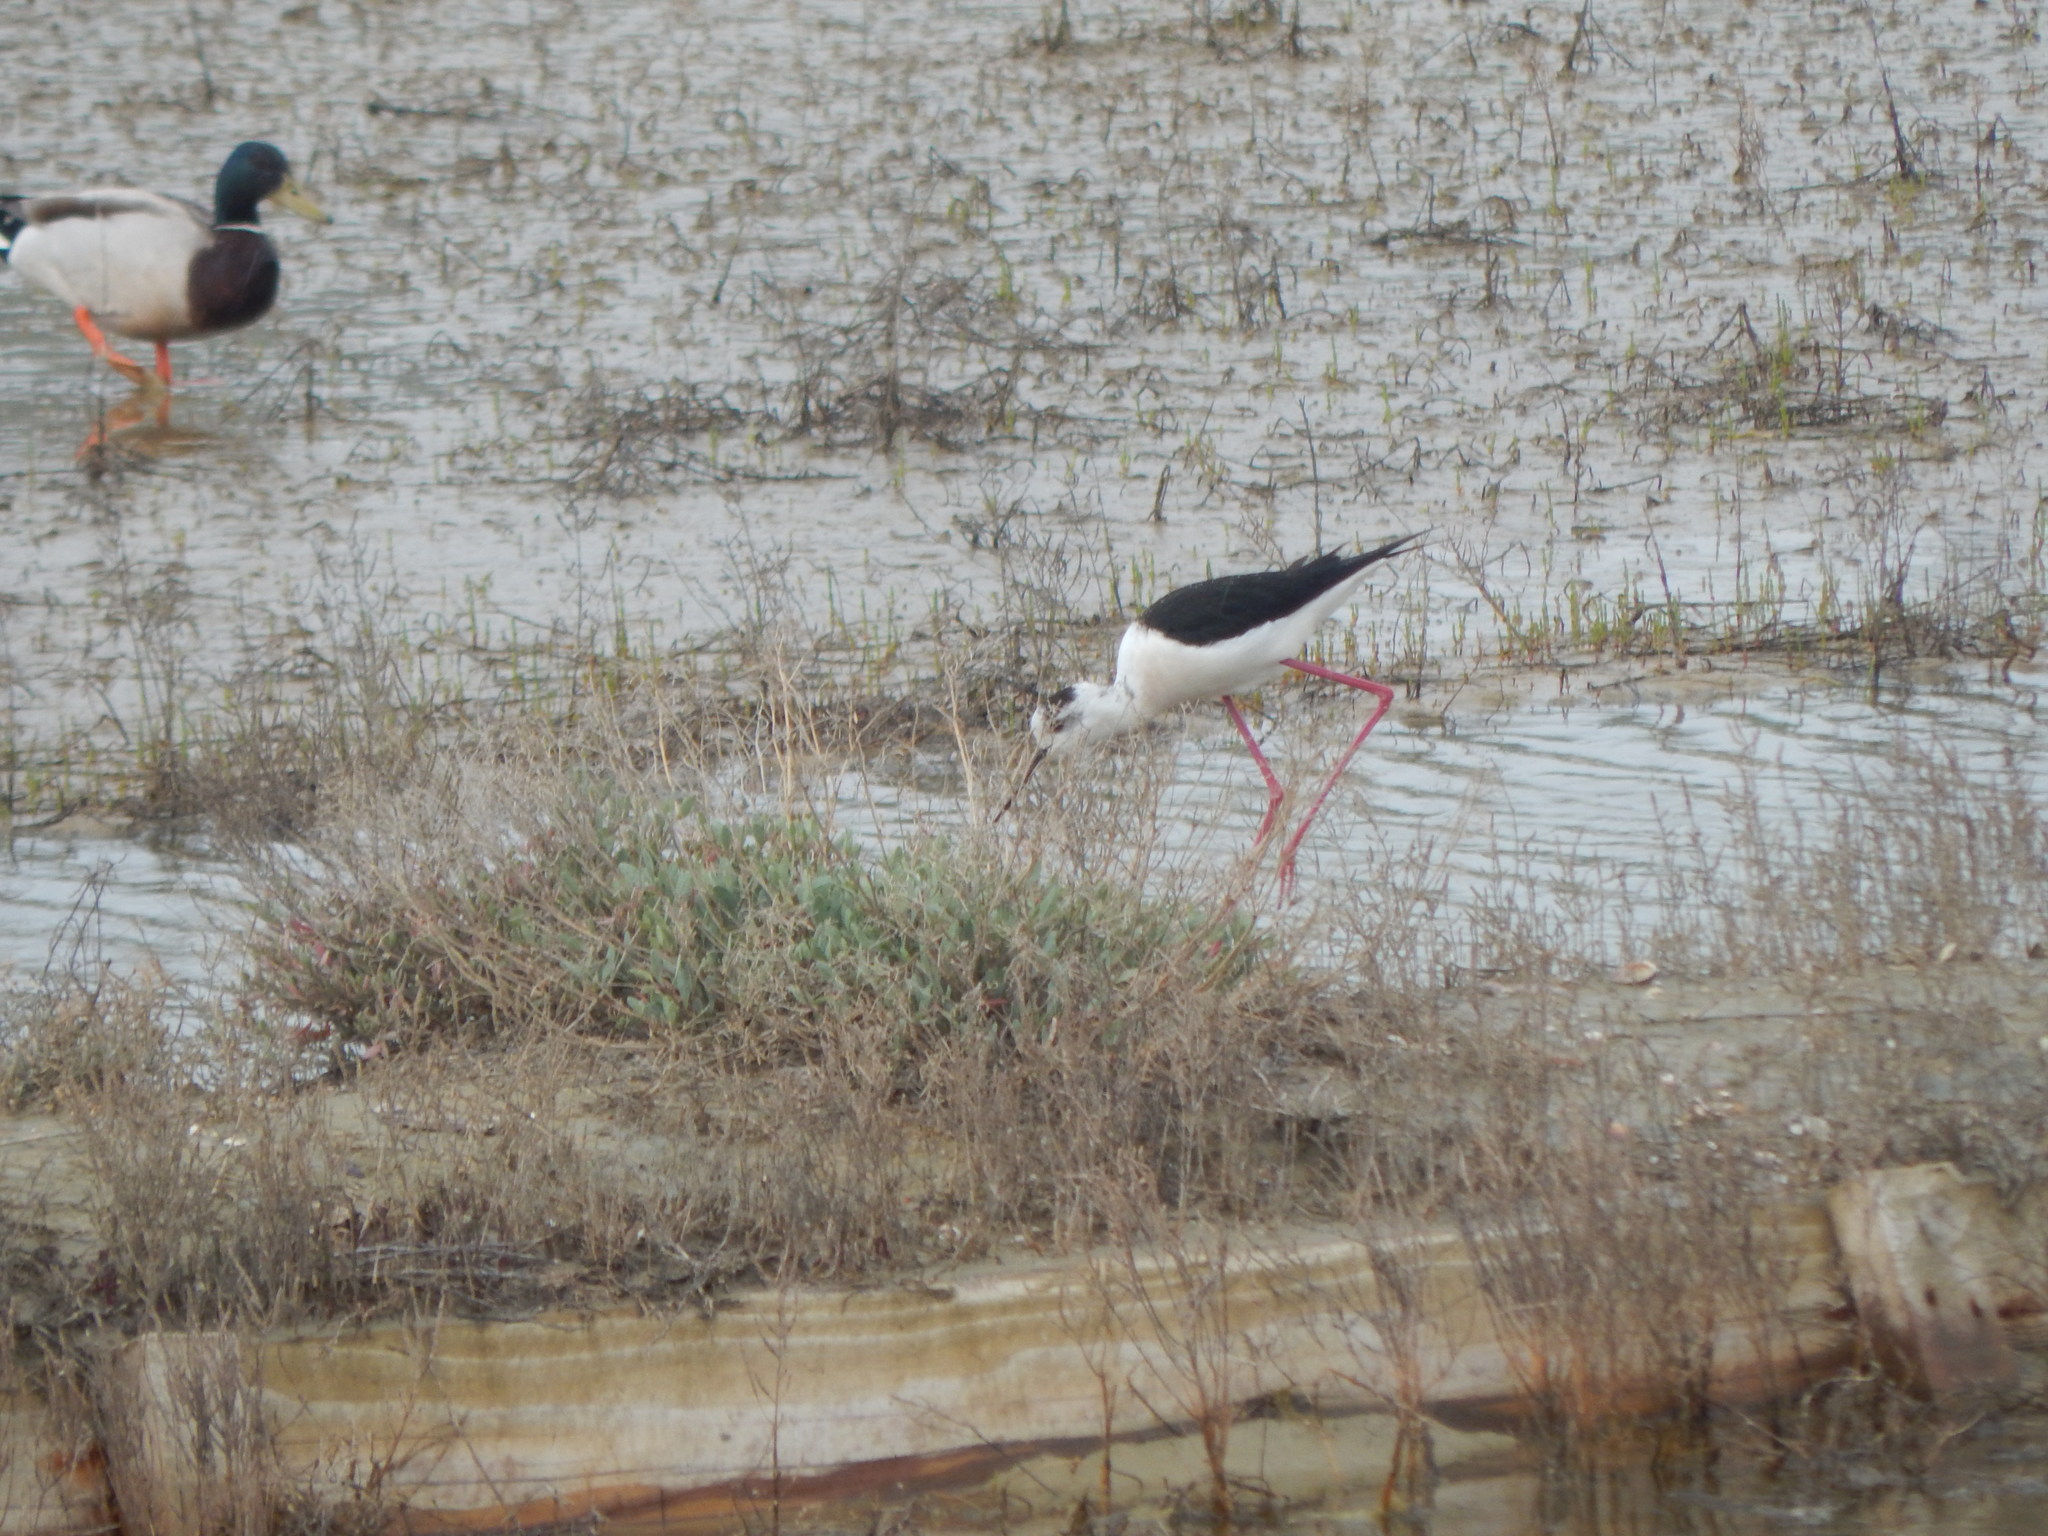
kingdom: Animalia
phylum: Chordata
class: Aves
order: Charadriiformes
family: Recurvirostridae
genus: Himantopus
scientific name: Himantopus himantopus
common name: Black-winged stilt
